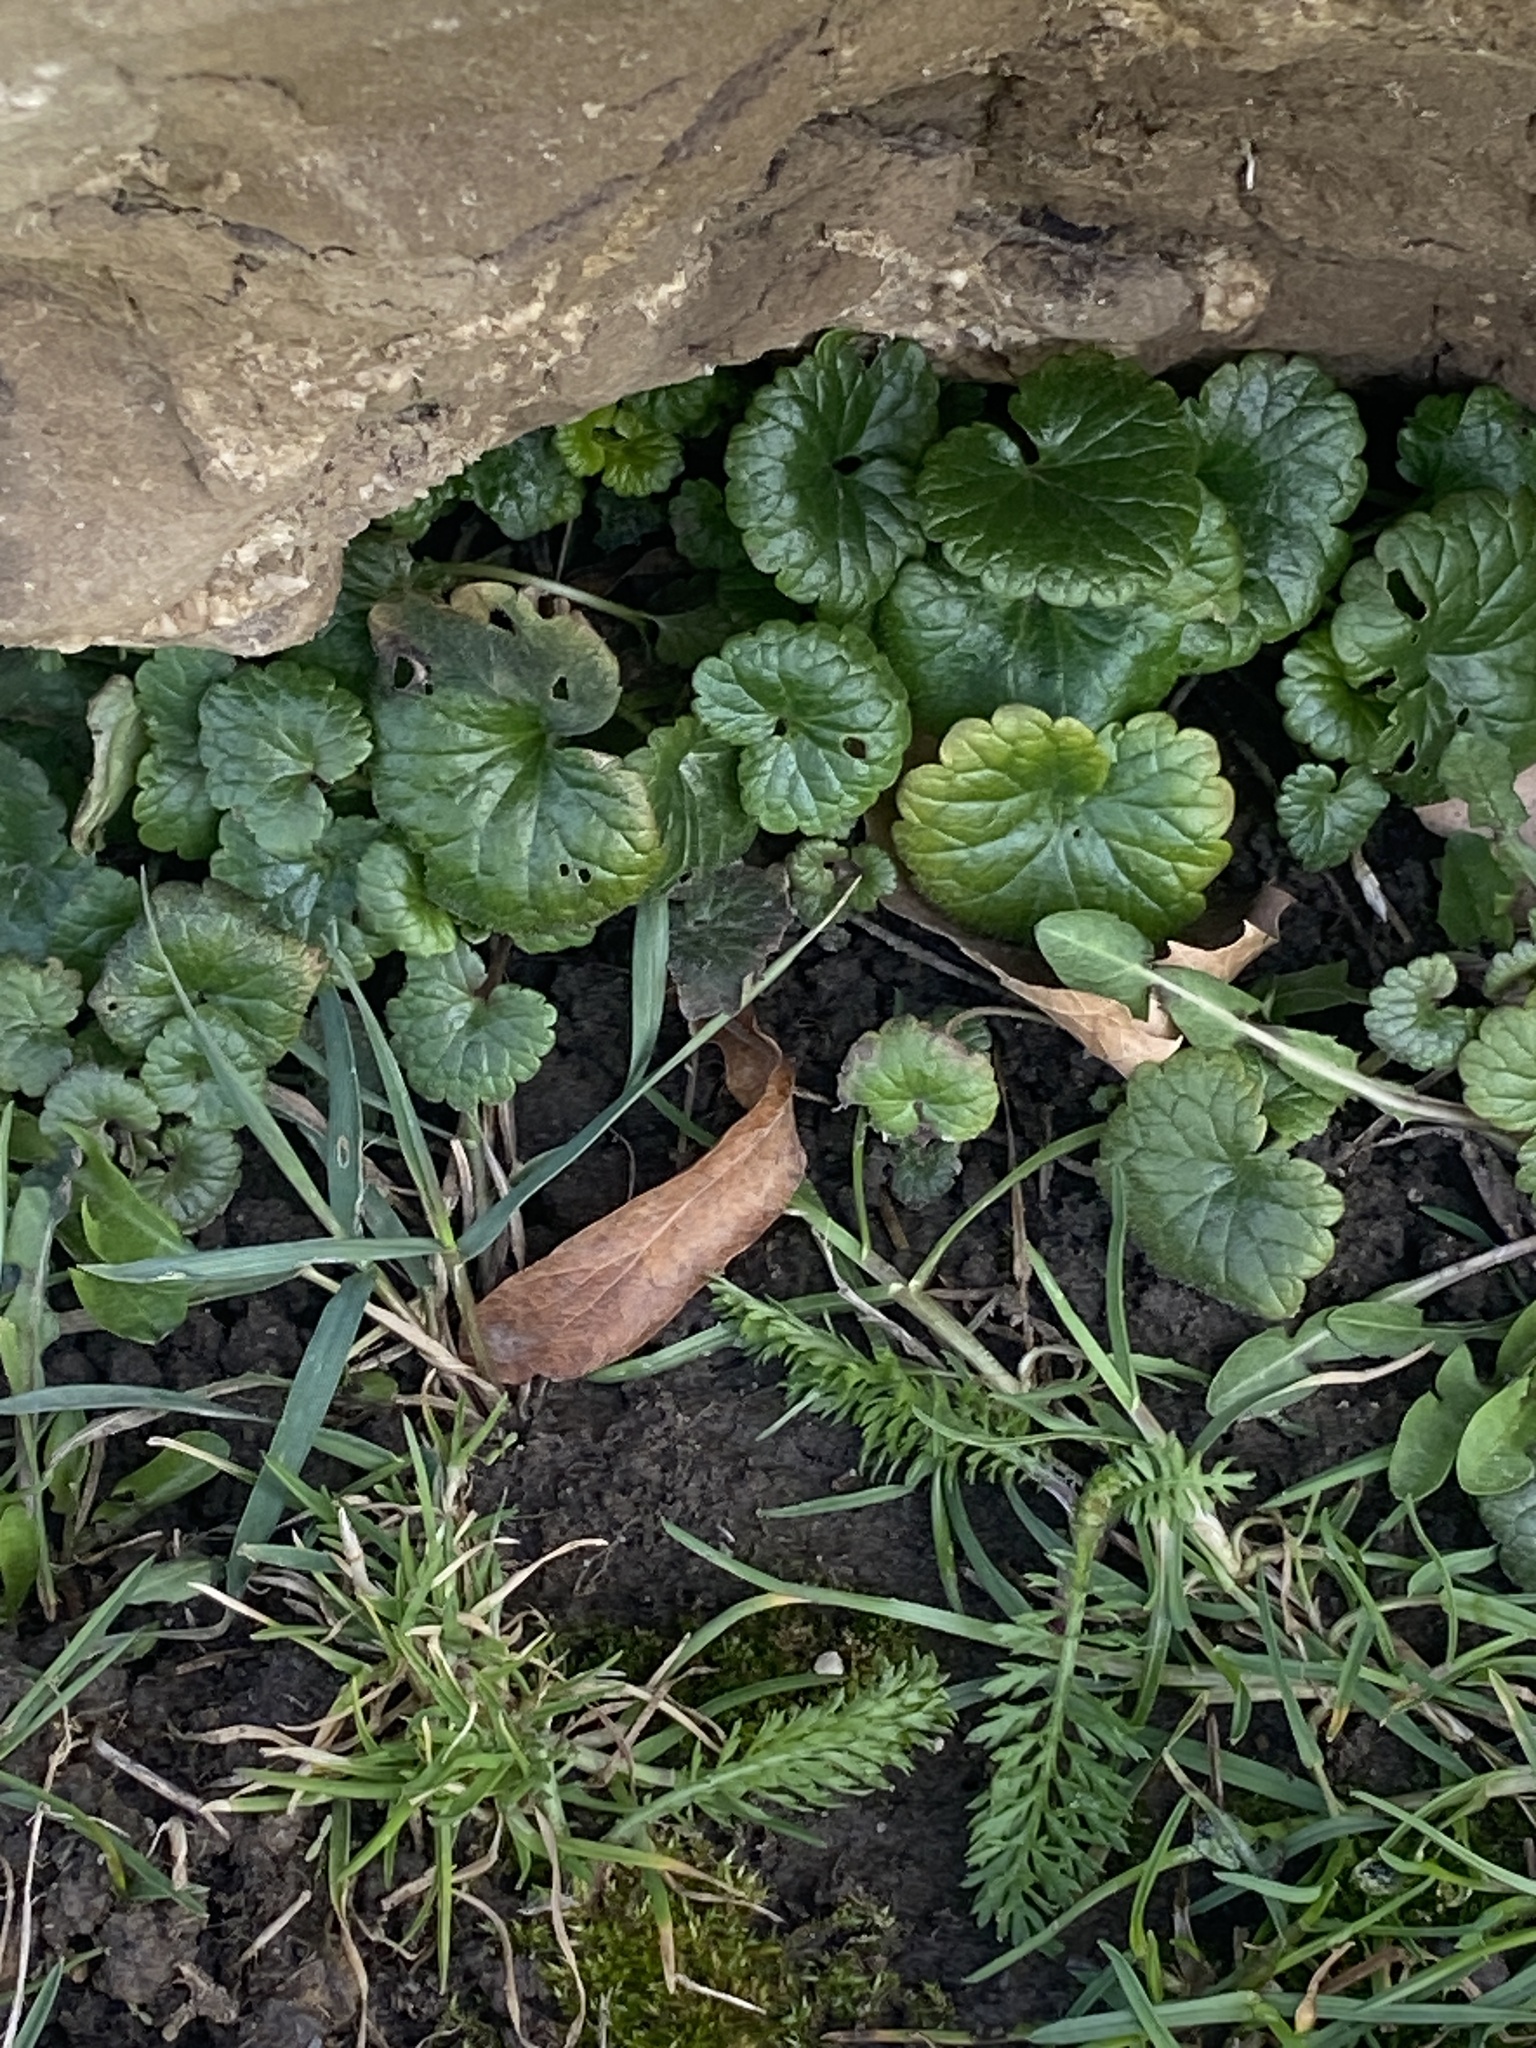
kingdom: Plantae
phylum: Tracheophyta
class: Magnoliopsida
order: Lamiales
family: Lamiaceae
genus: Glechoma
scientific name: Glechoma hederacea
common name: Ground ivy
